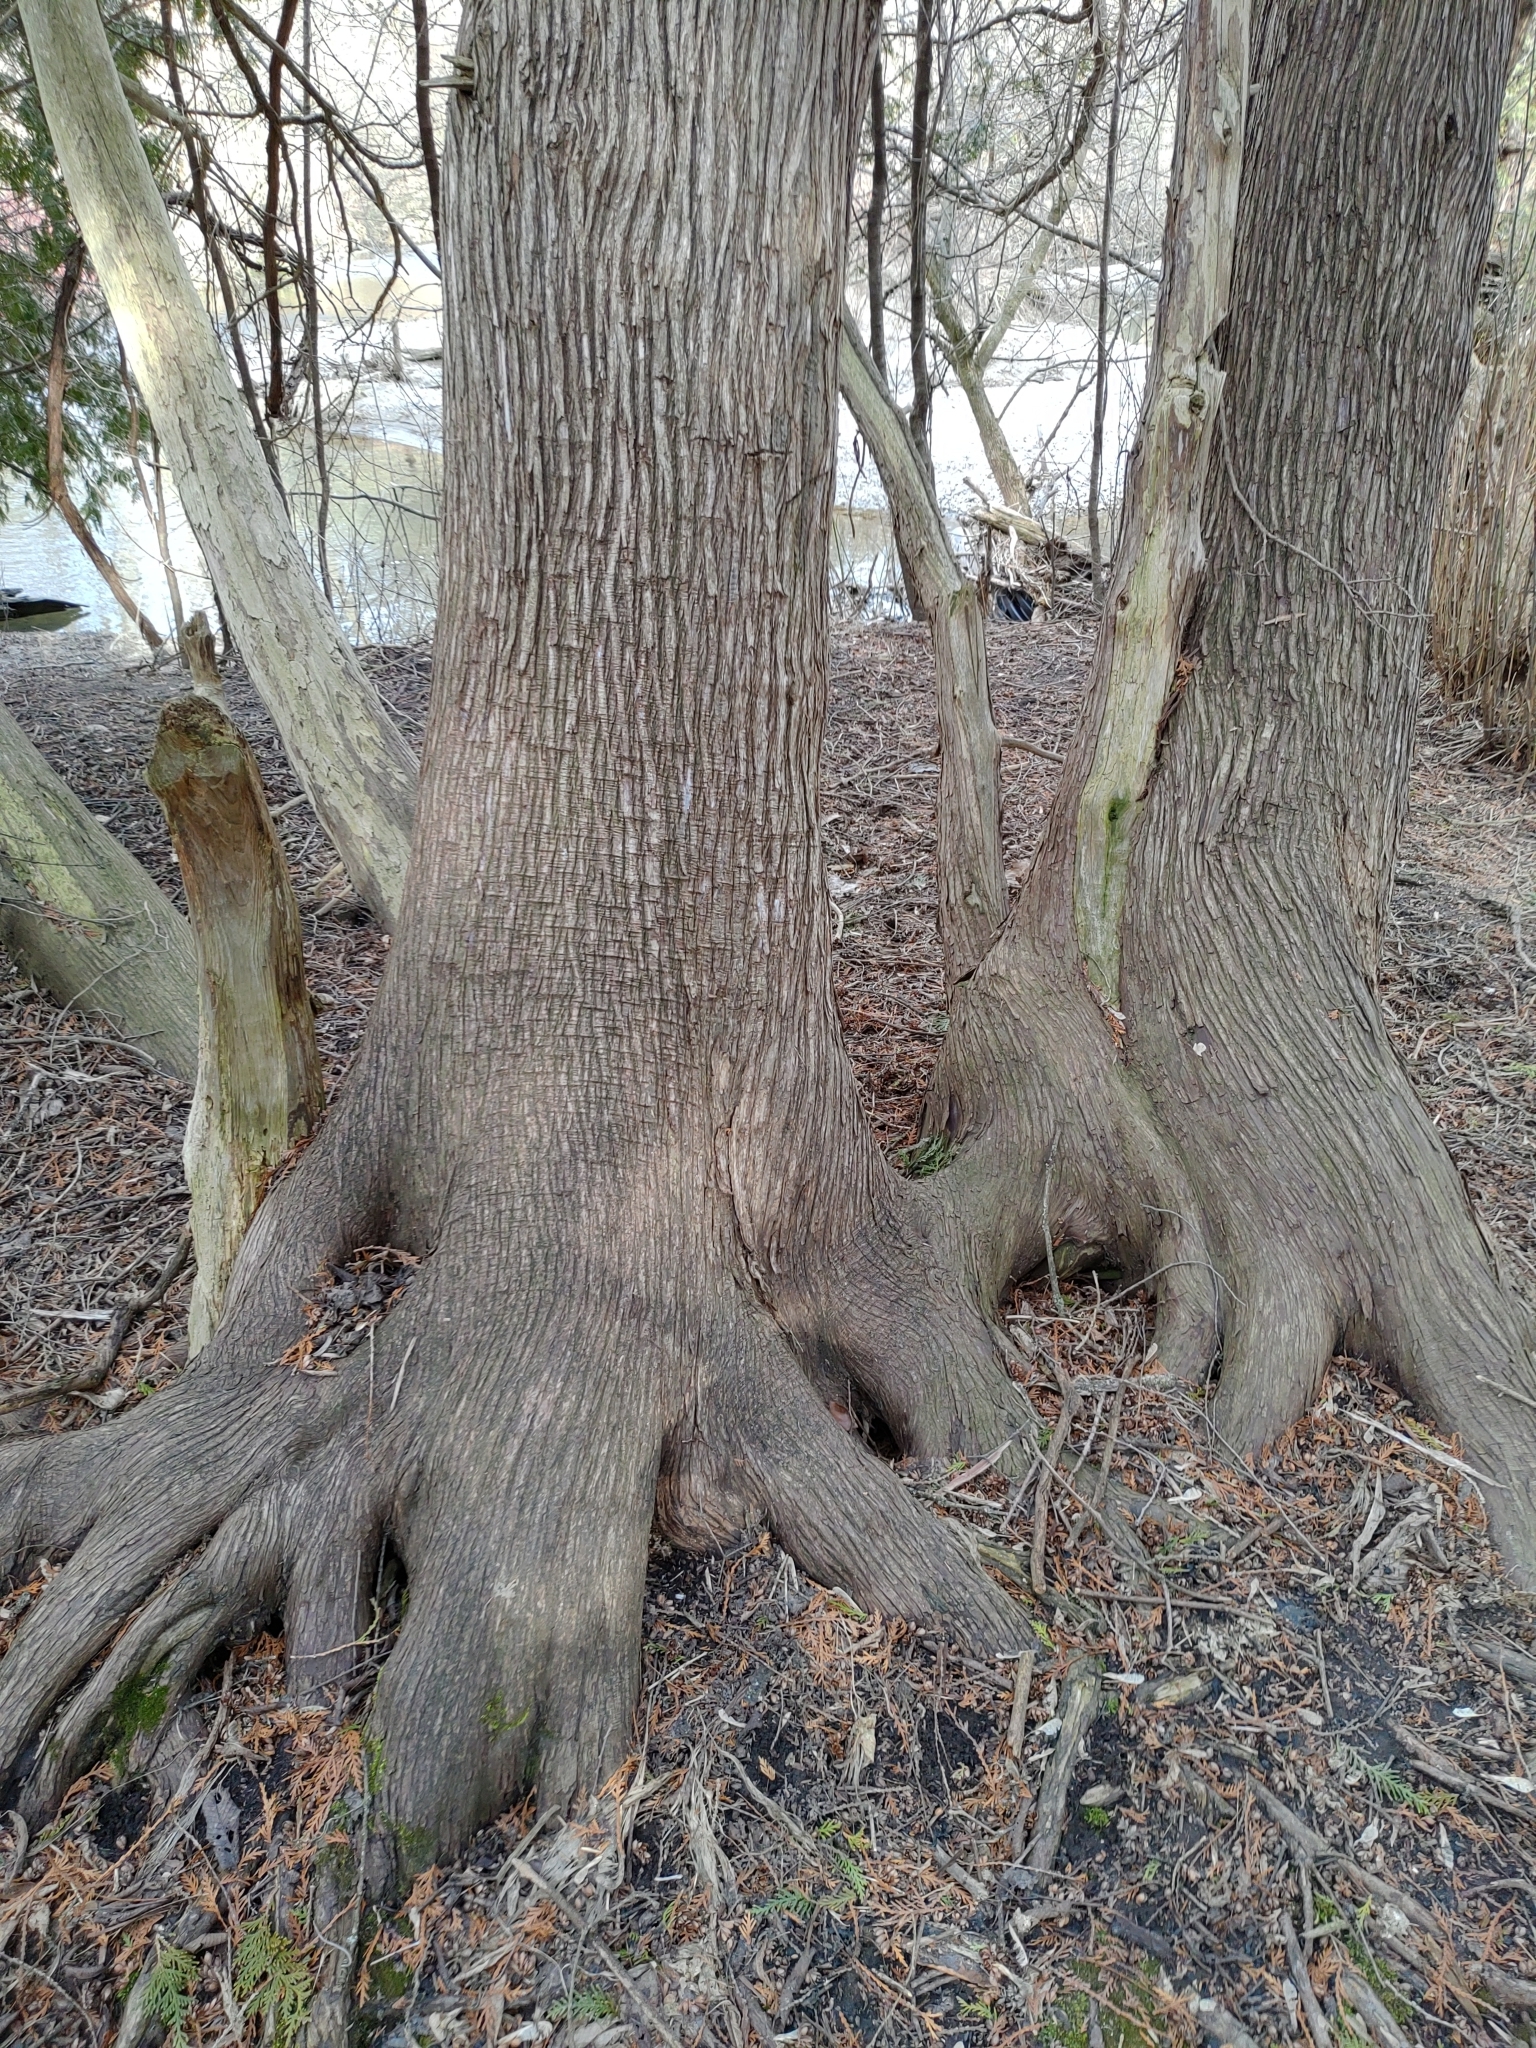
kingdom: Plantae
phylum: Tracheophyta
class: Pinopsida
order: Pinales
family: Cupressaceae
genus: Thuja
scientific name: Thuja occidentalis
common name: Northern white-cedar
